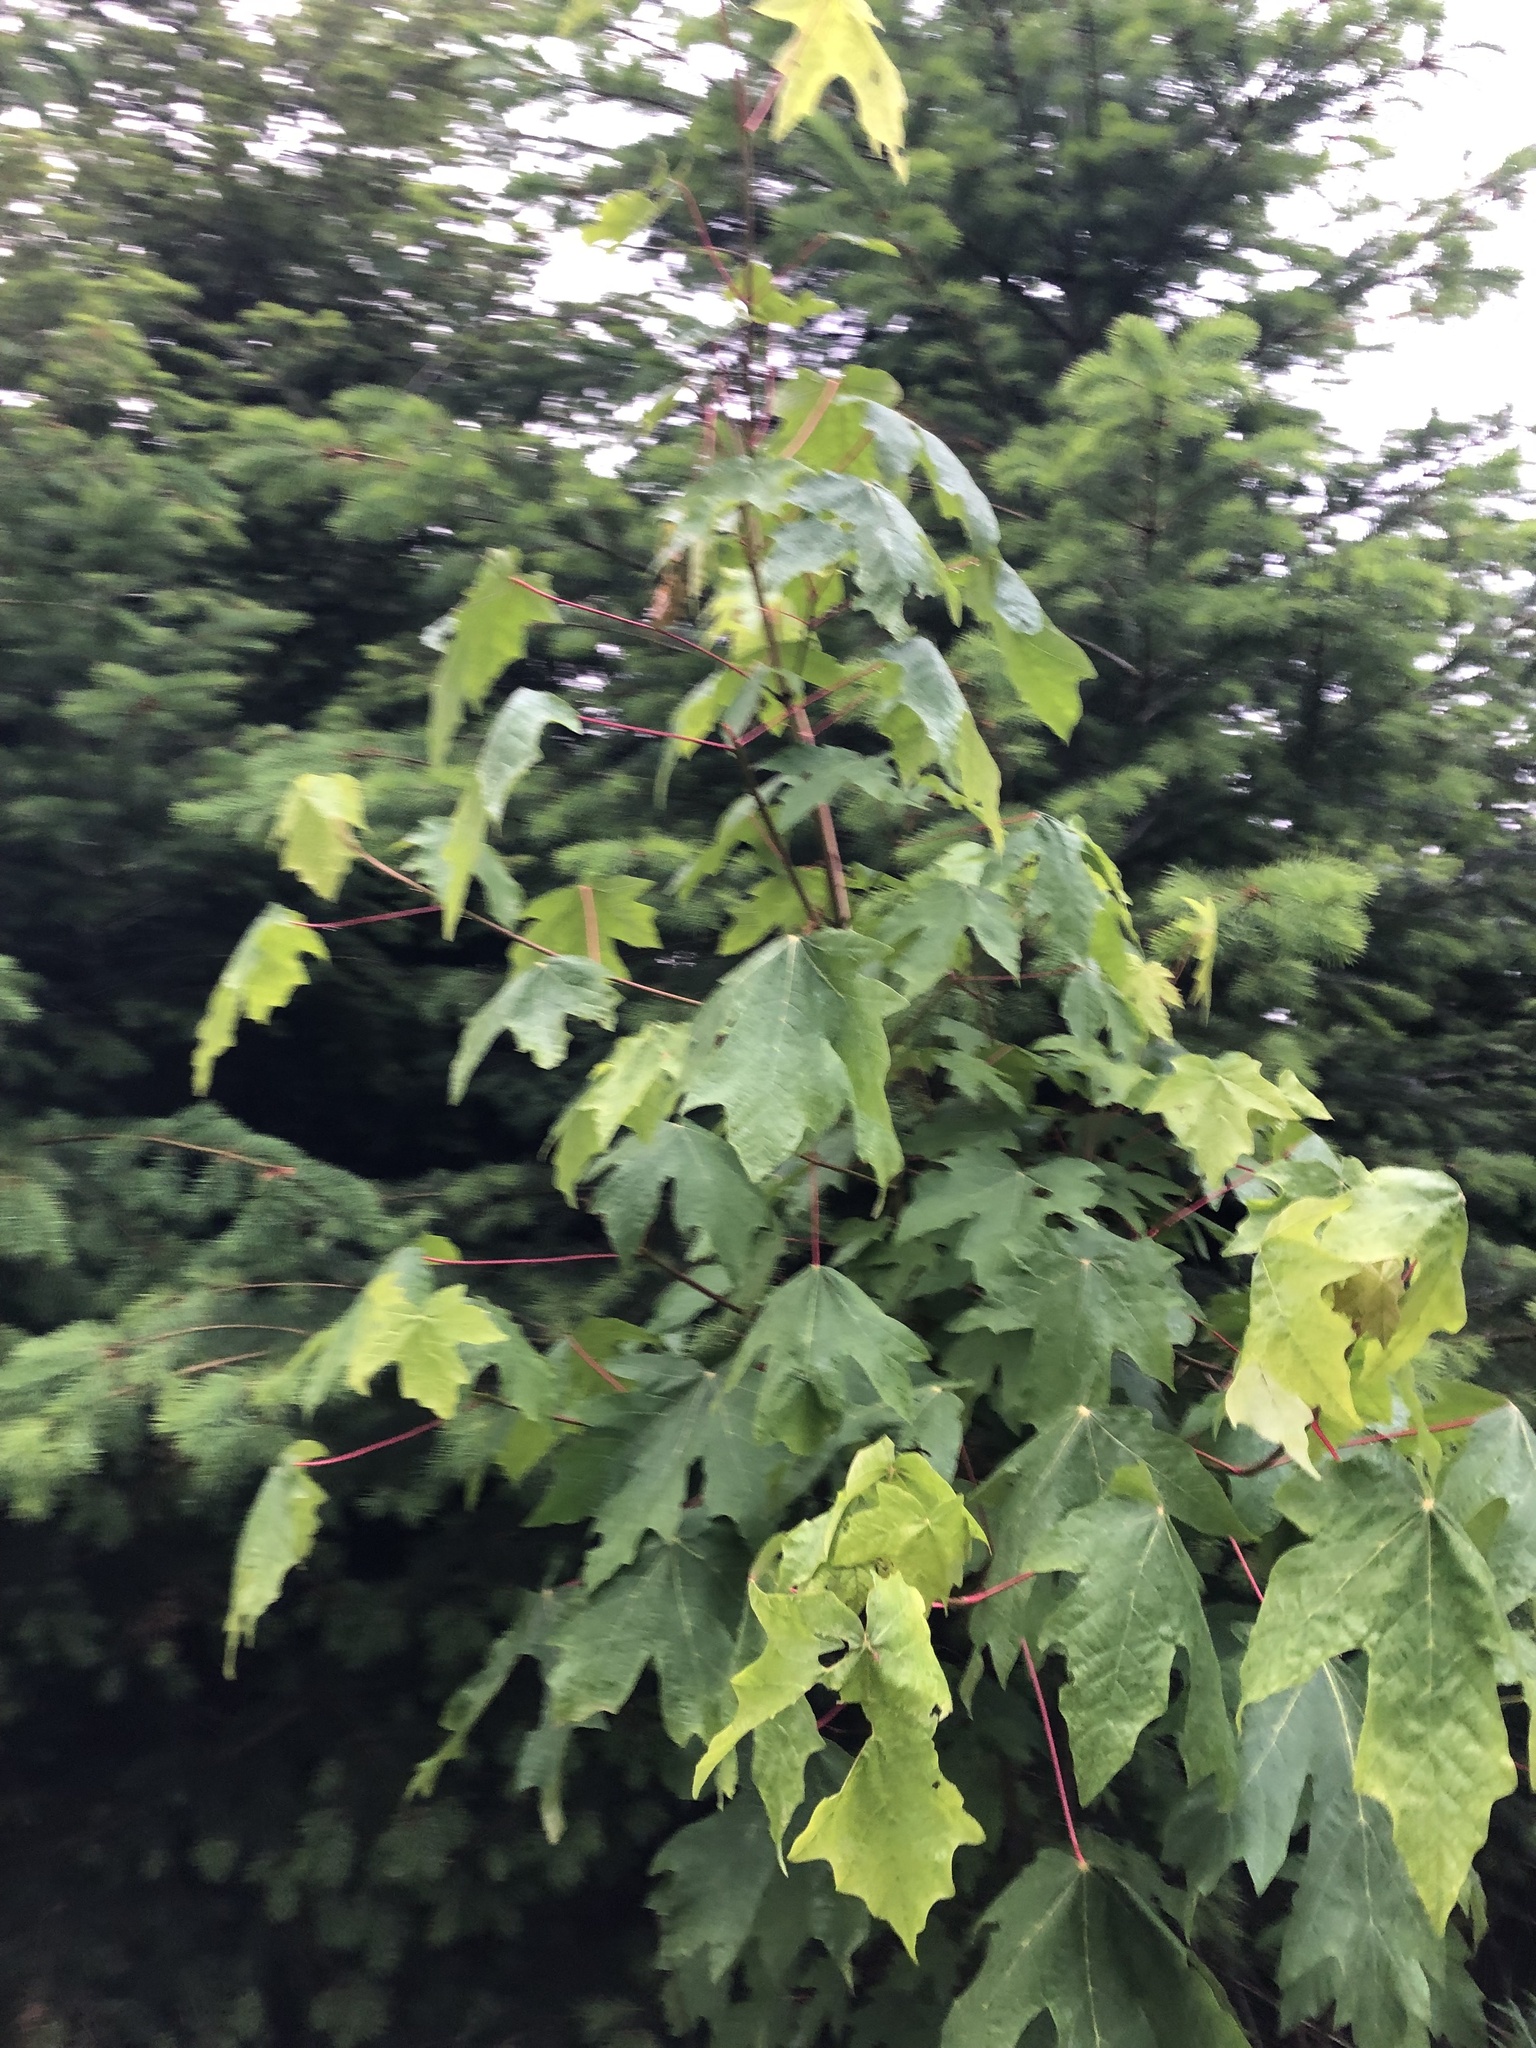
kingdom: Plantae
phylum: Tracheophyta
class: Magnoliopsida
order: Sapindales
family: Sapindaceae
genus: Acer
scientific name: Acer macrophyllum
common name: Oregon maple
